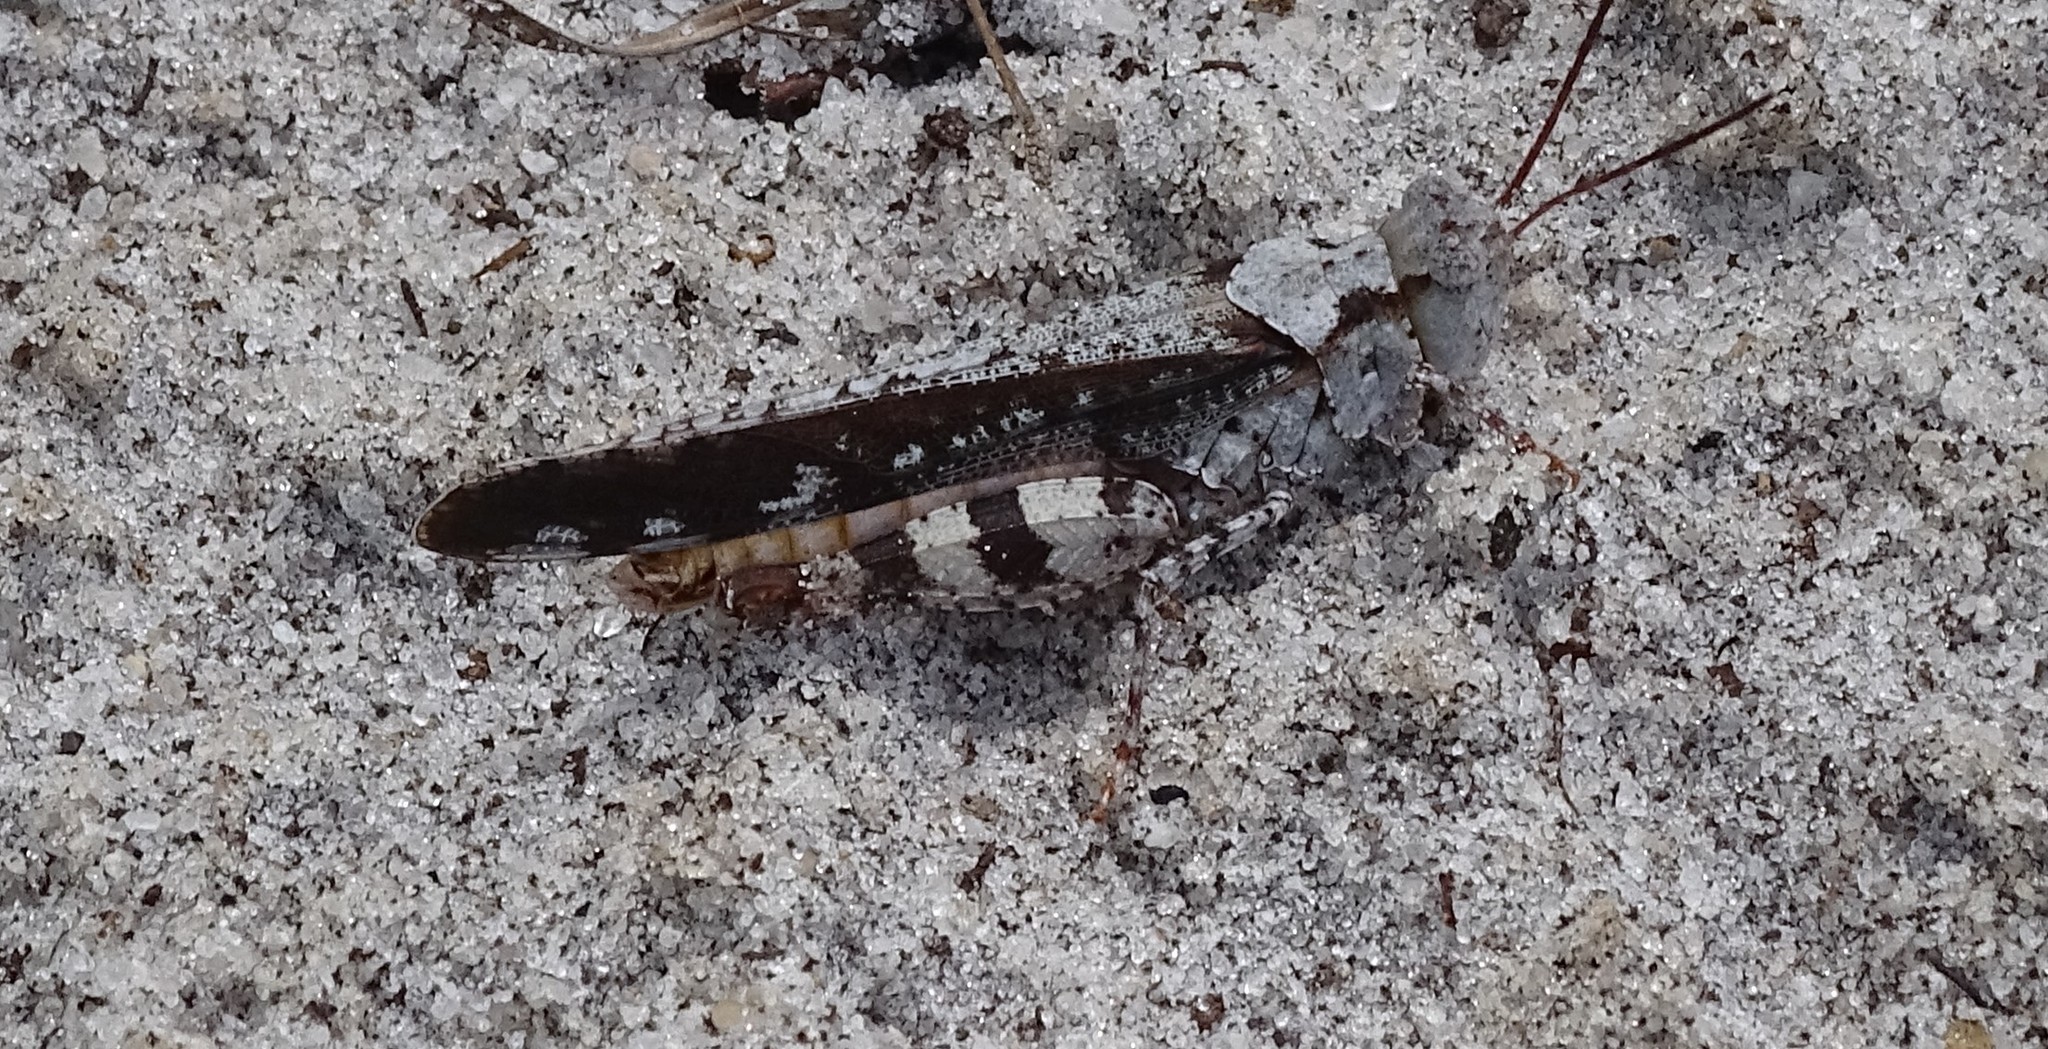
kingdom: Animalia
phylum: Arthropoda
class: Insecta
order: Orthoptera
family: Acrididae
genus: Spharagemon
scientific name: Spharagemon marmoratum
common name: Marbled grasshopper
